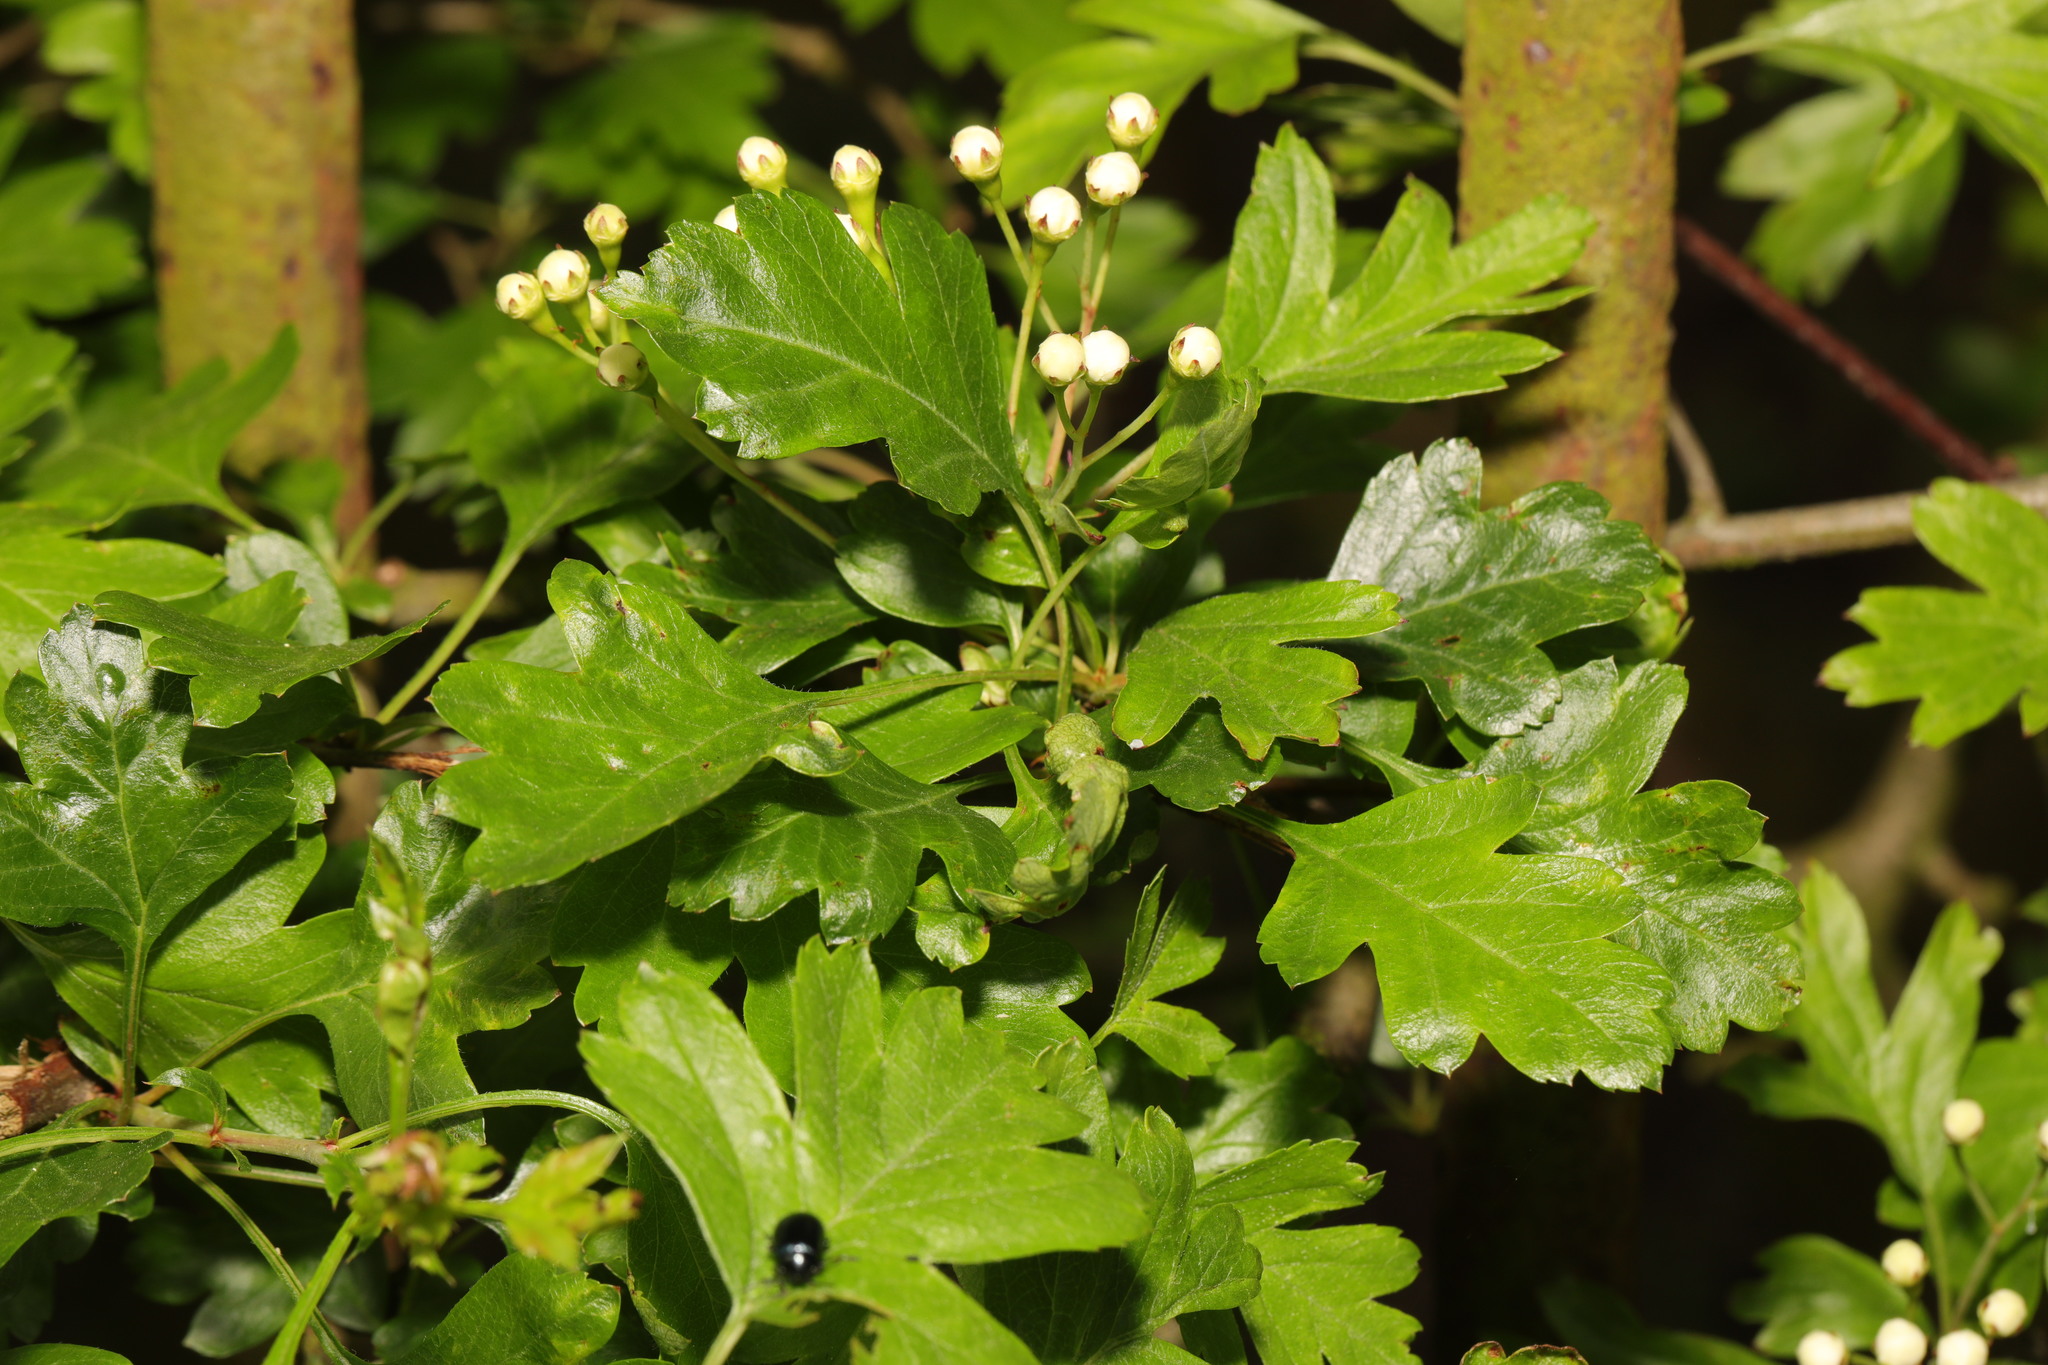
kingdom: Plantae
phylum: Tracheophyta
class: Magnoliopsida
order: Rosales
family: Rosaceae
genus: Crataegus
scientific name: Crataegus monogyna
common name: Hawthorn
